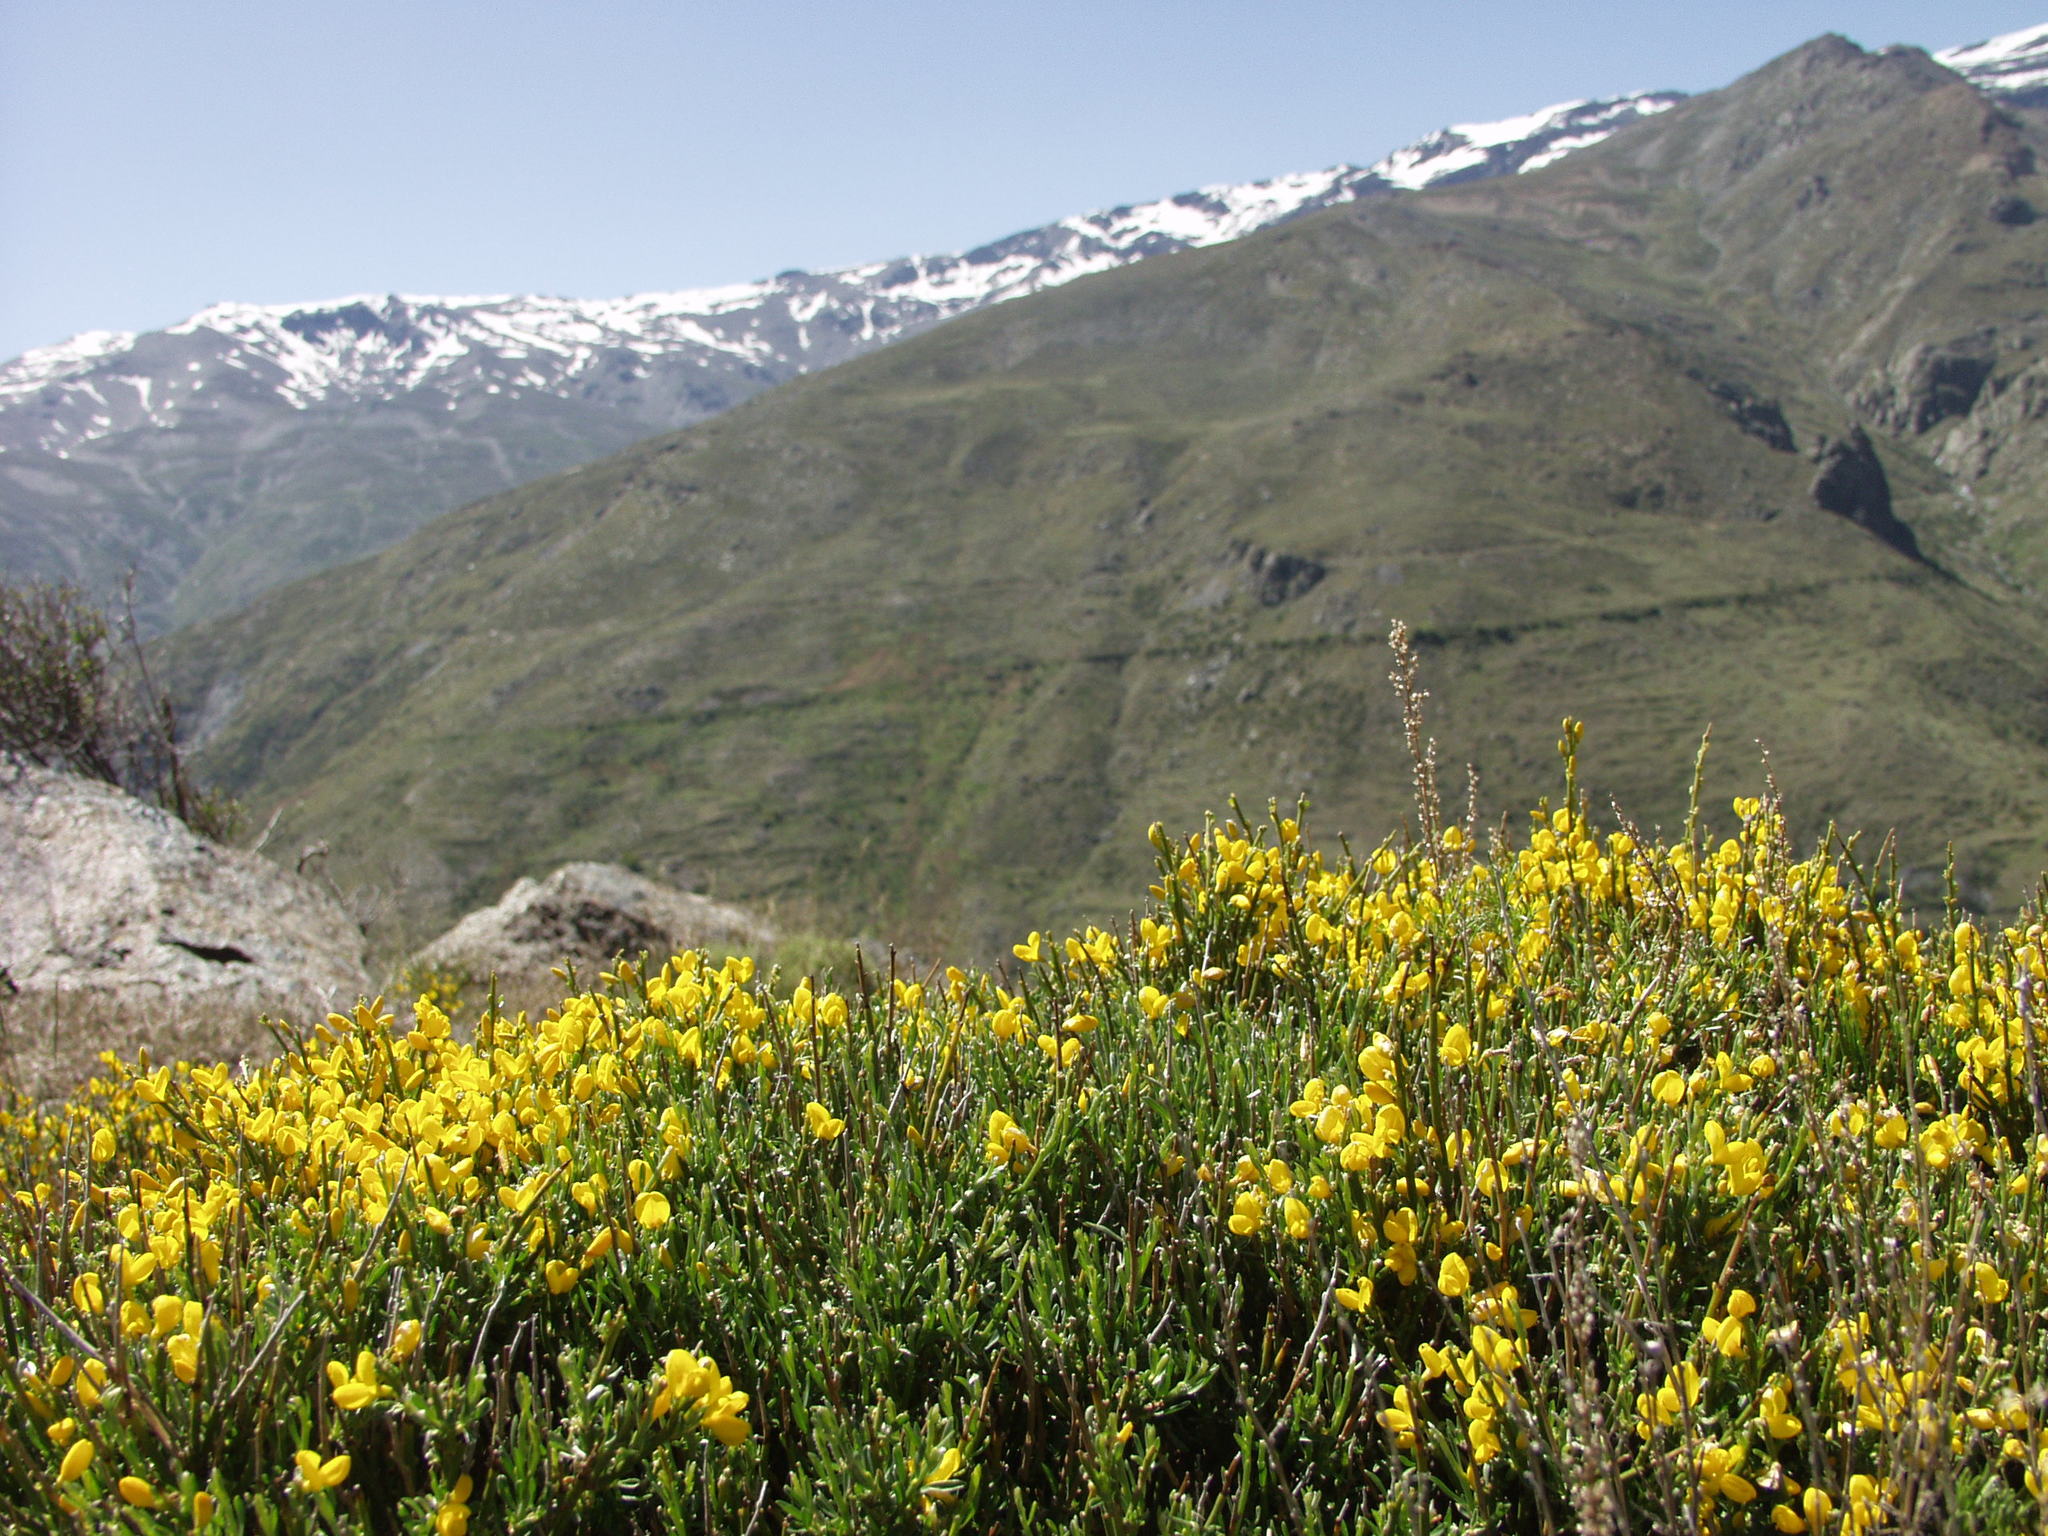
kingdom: Plantae
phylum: Tracheophyta
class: Magnoliopsida
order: Fabales
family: Fabaceae
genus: Cytisus
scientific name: Cytisus balansae
